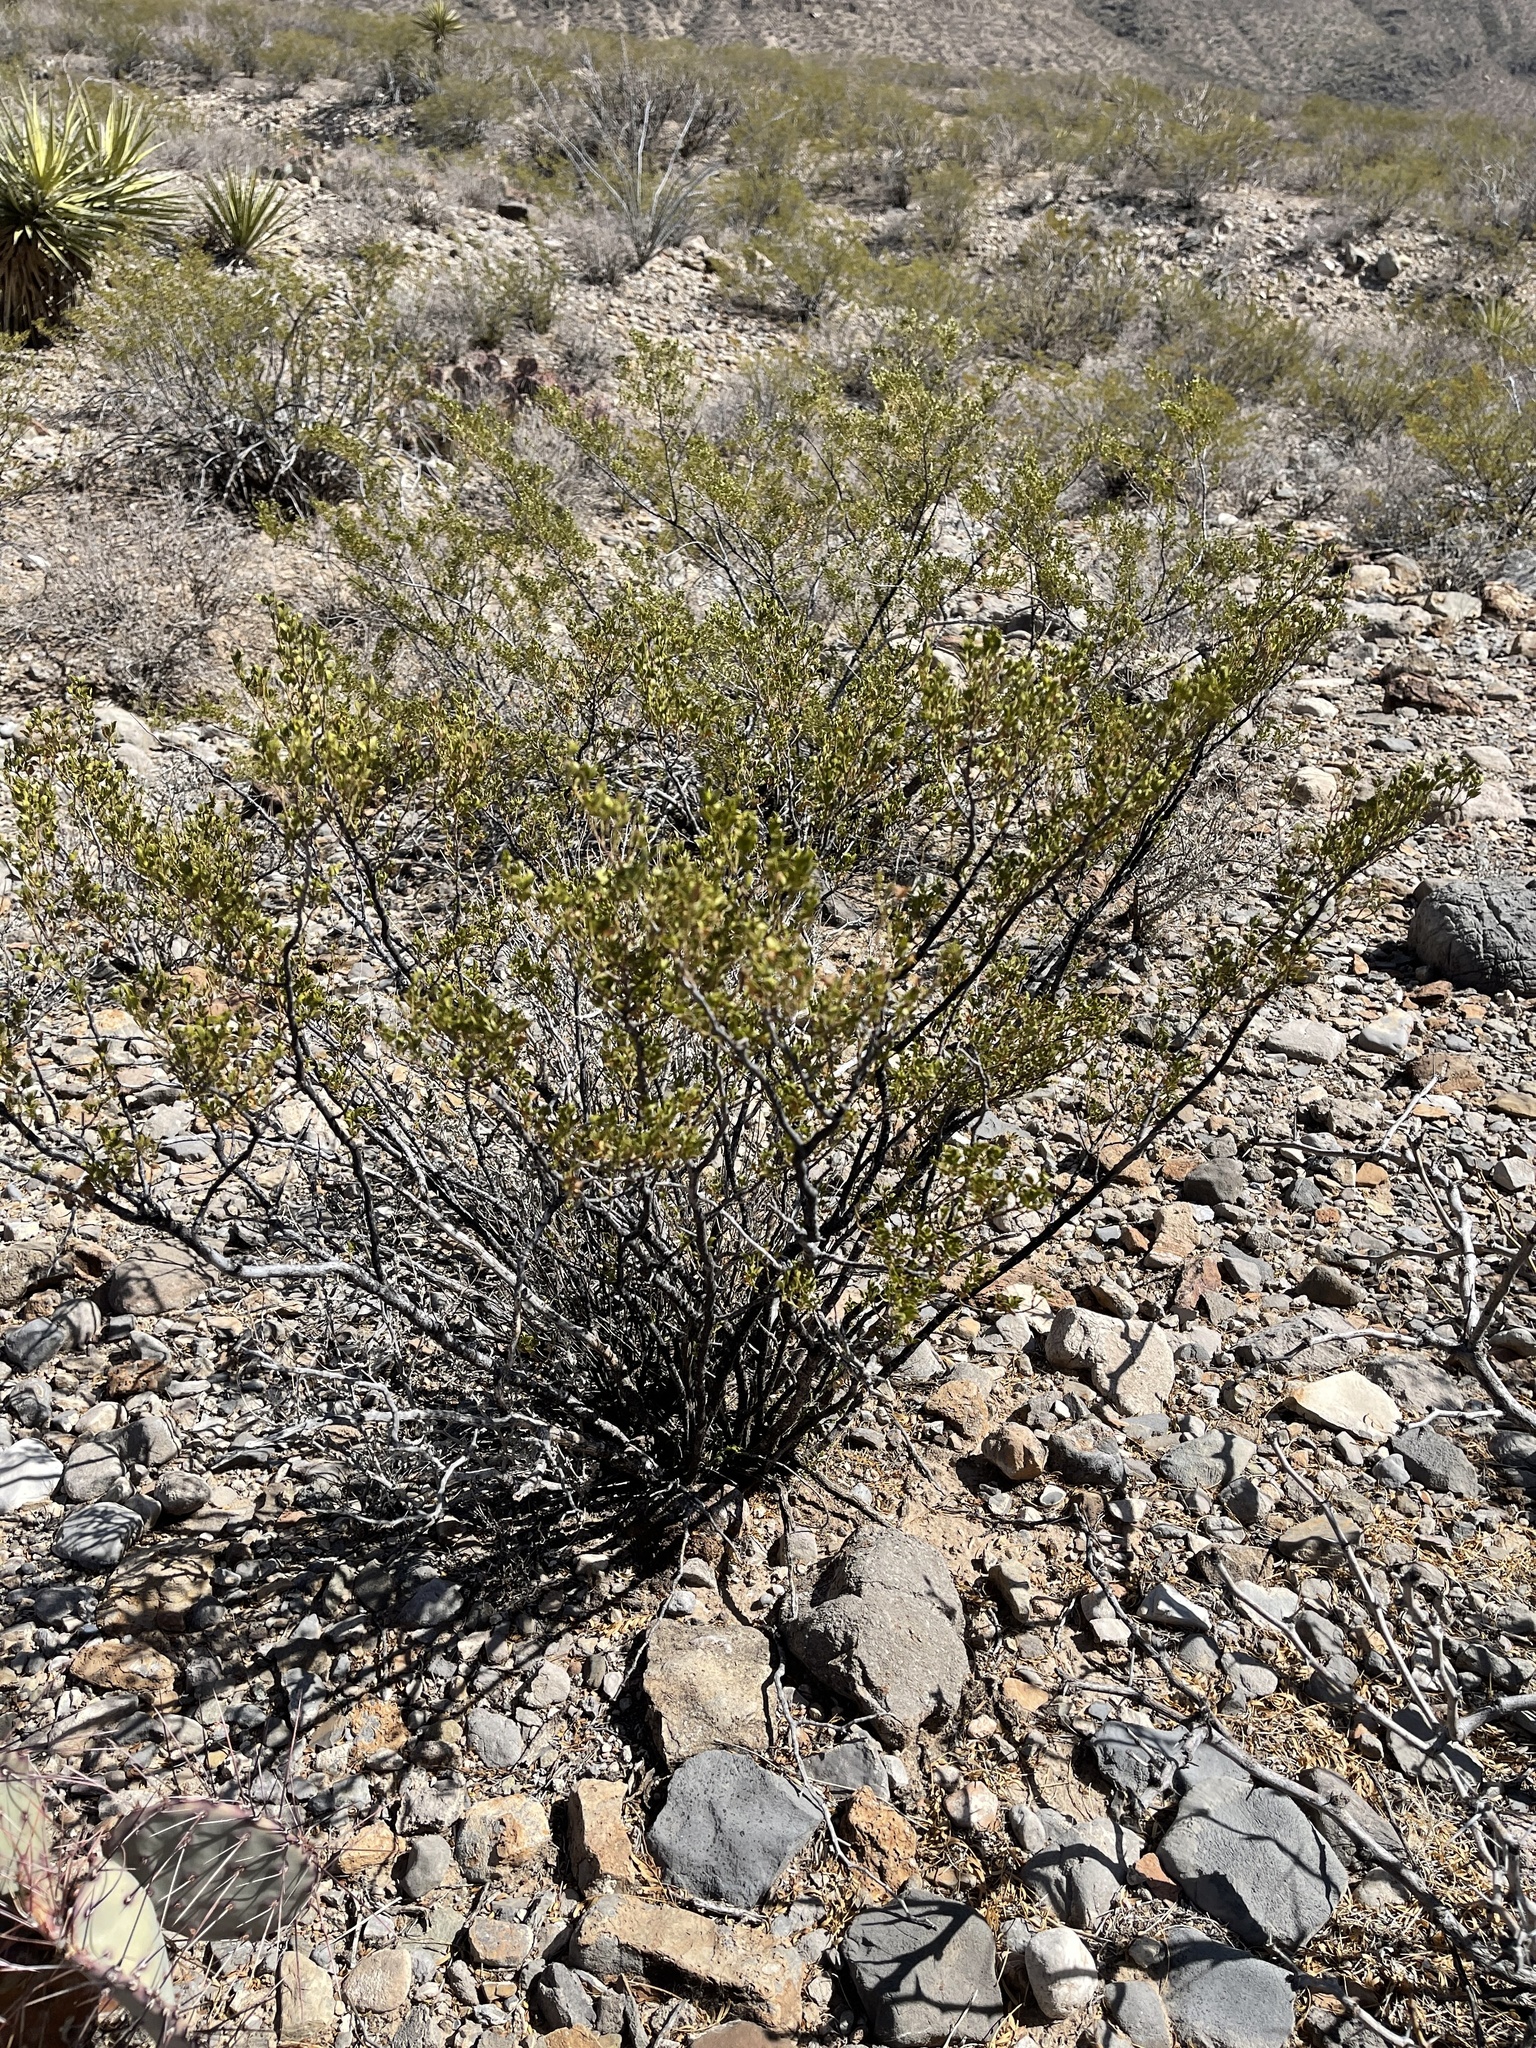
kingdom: Plantae
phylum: Tracheophyta
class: Magnoliopsida
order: Zygophyllales
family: Zygophyllaceae
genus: Larrea
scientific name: Larrea tridentata
